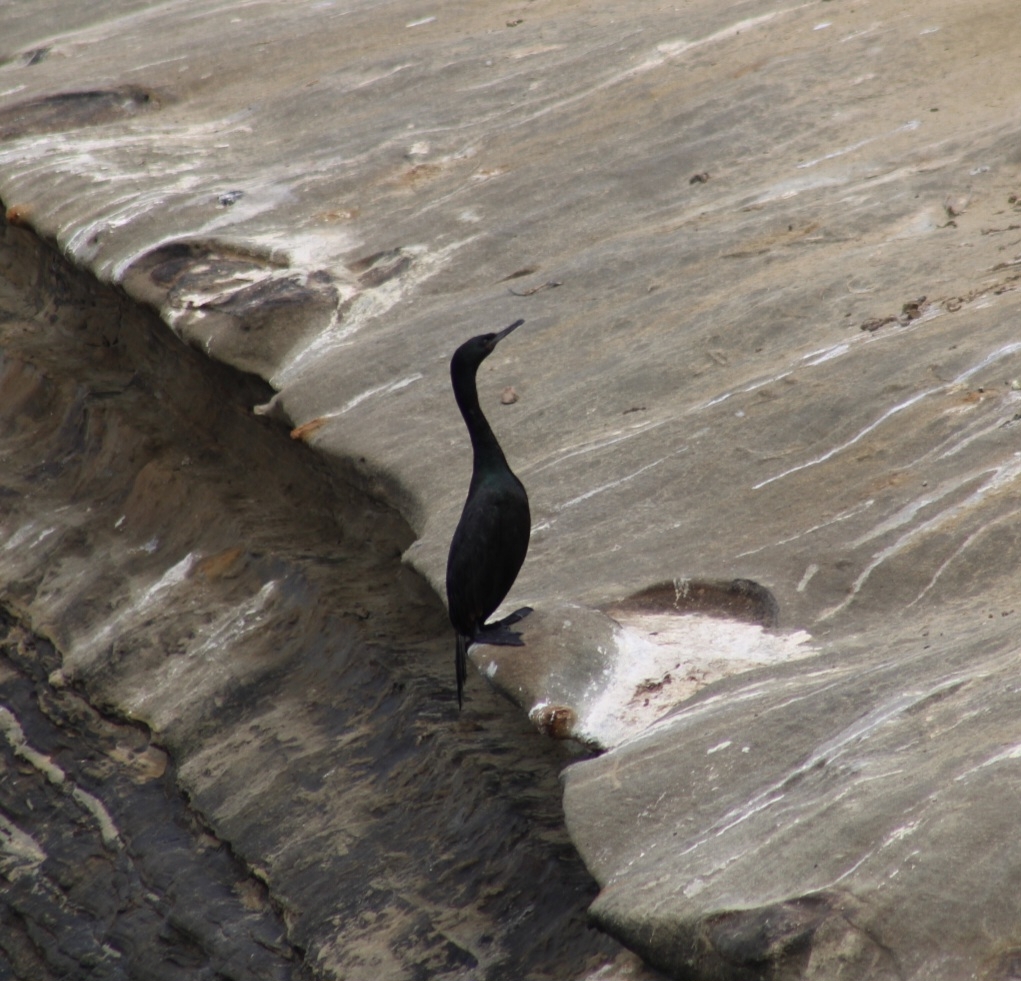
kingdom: Animalia
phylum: Chordata
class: Aves
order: Suliformes
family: Phalacrocoracidae
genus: Phalacrocorax
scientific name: Phalacrocorax pelagicus
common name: Pelagic cormorant
